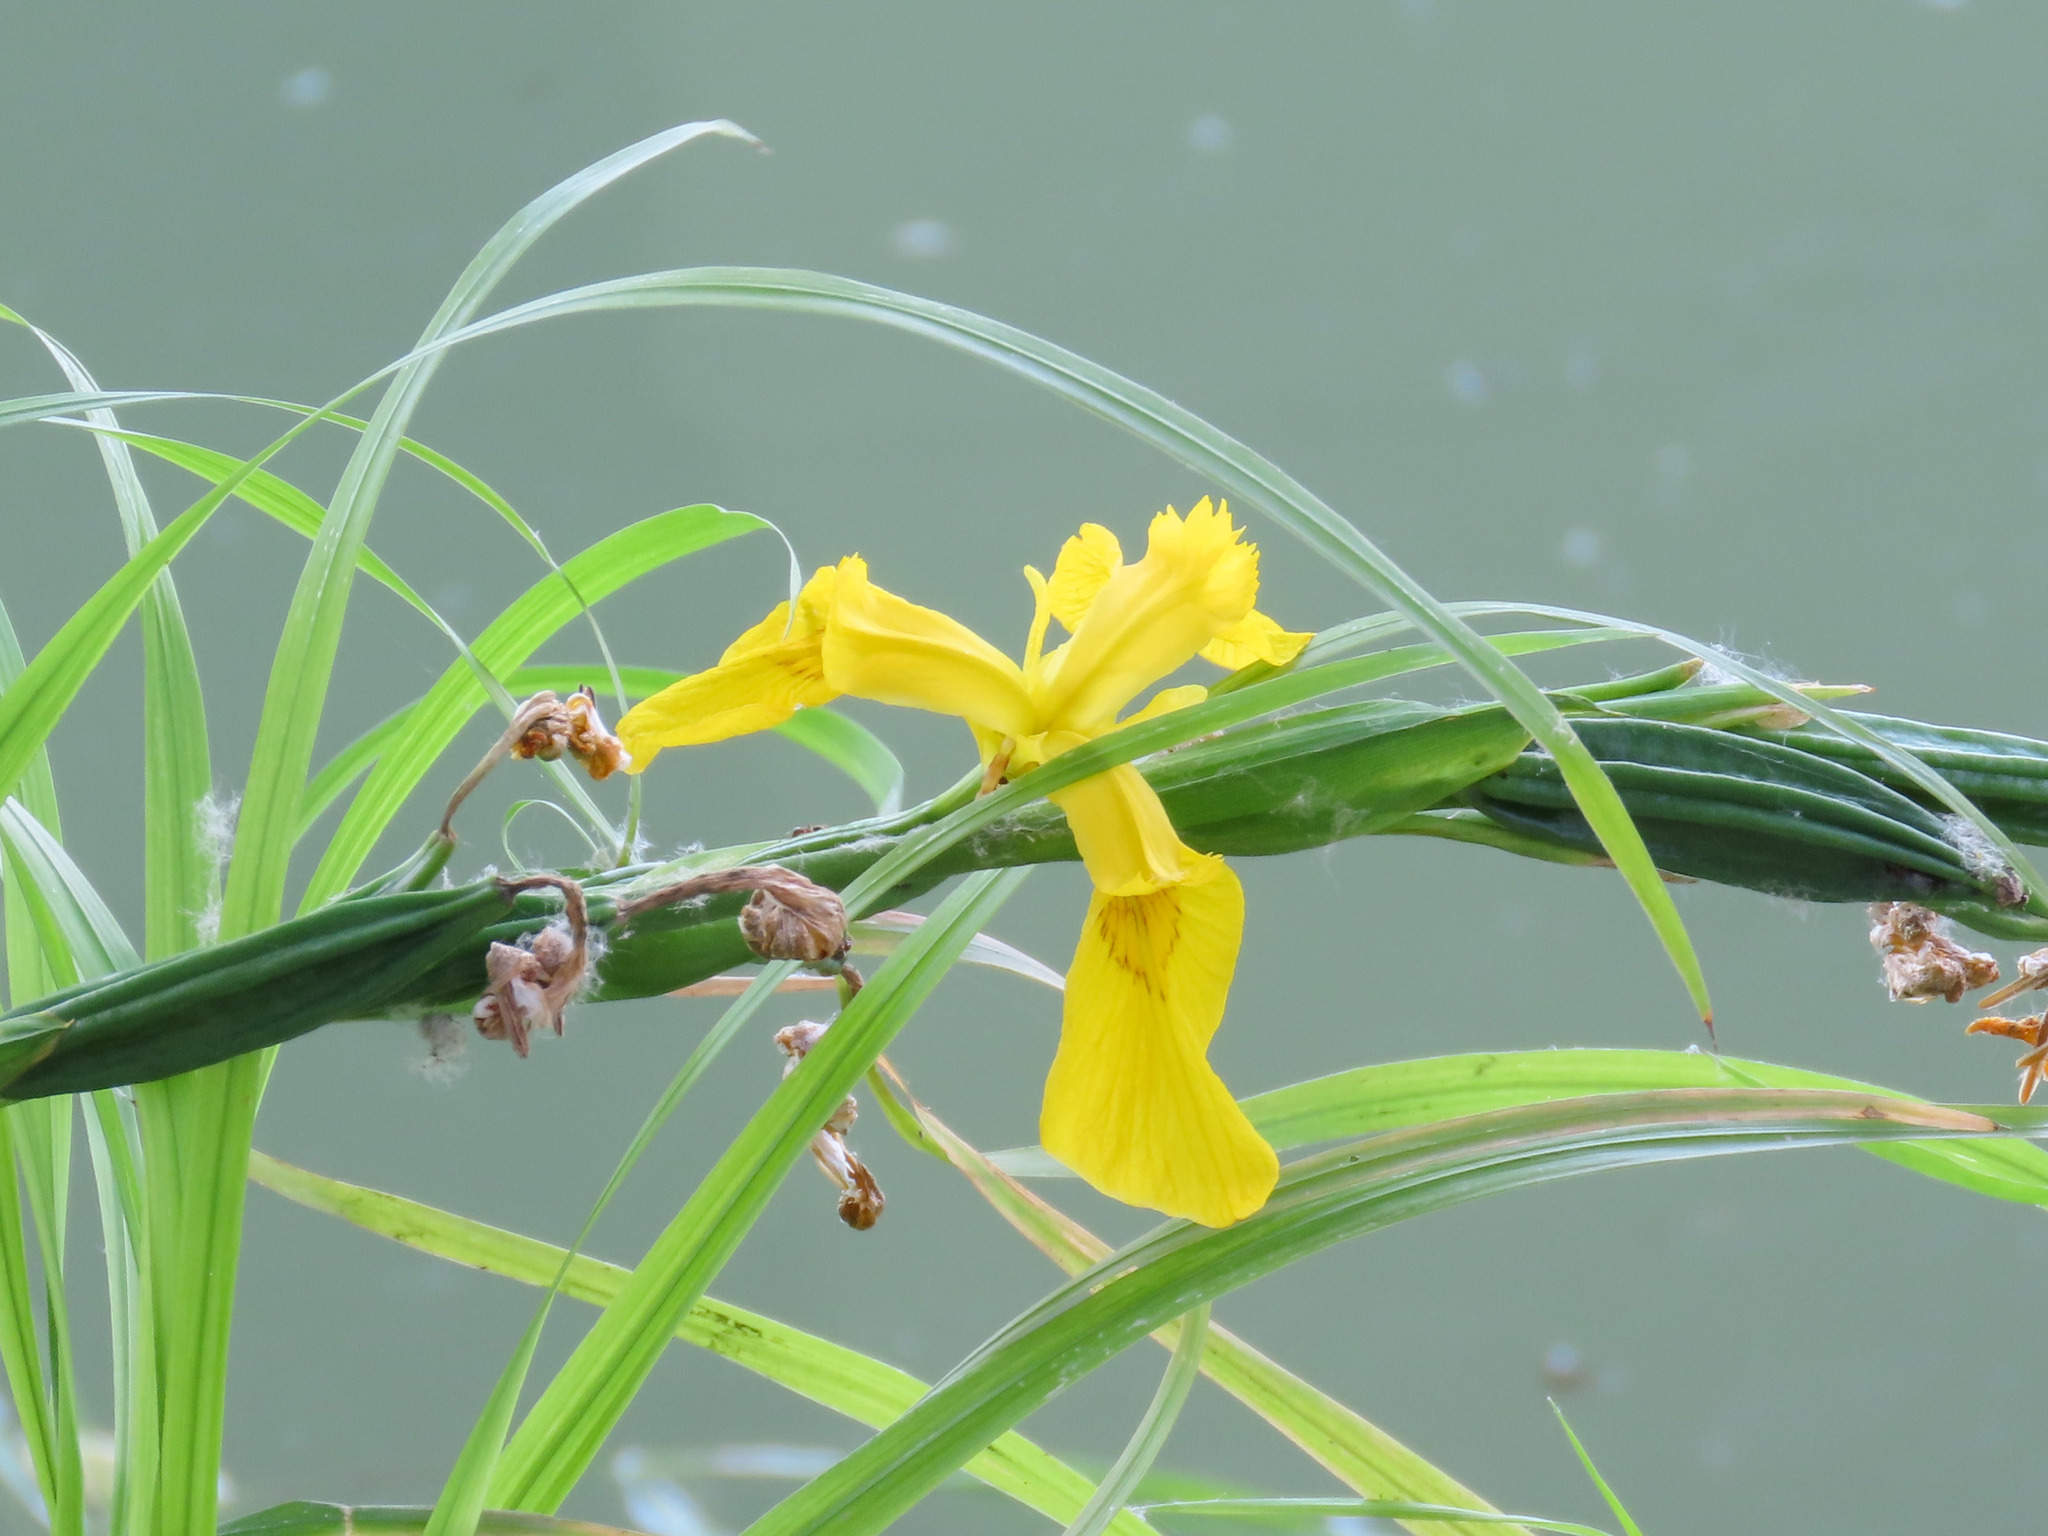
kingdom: Plantae
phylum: Tracheophyta
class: Liliopsida
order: Asparagales
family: Iridaceae
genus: Iris
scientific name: Iris pseudacorus
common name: Yellow flag
